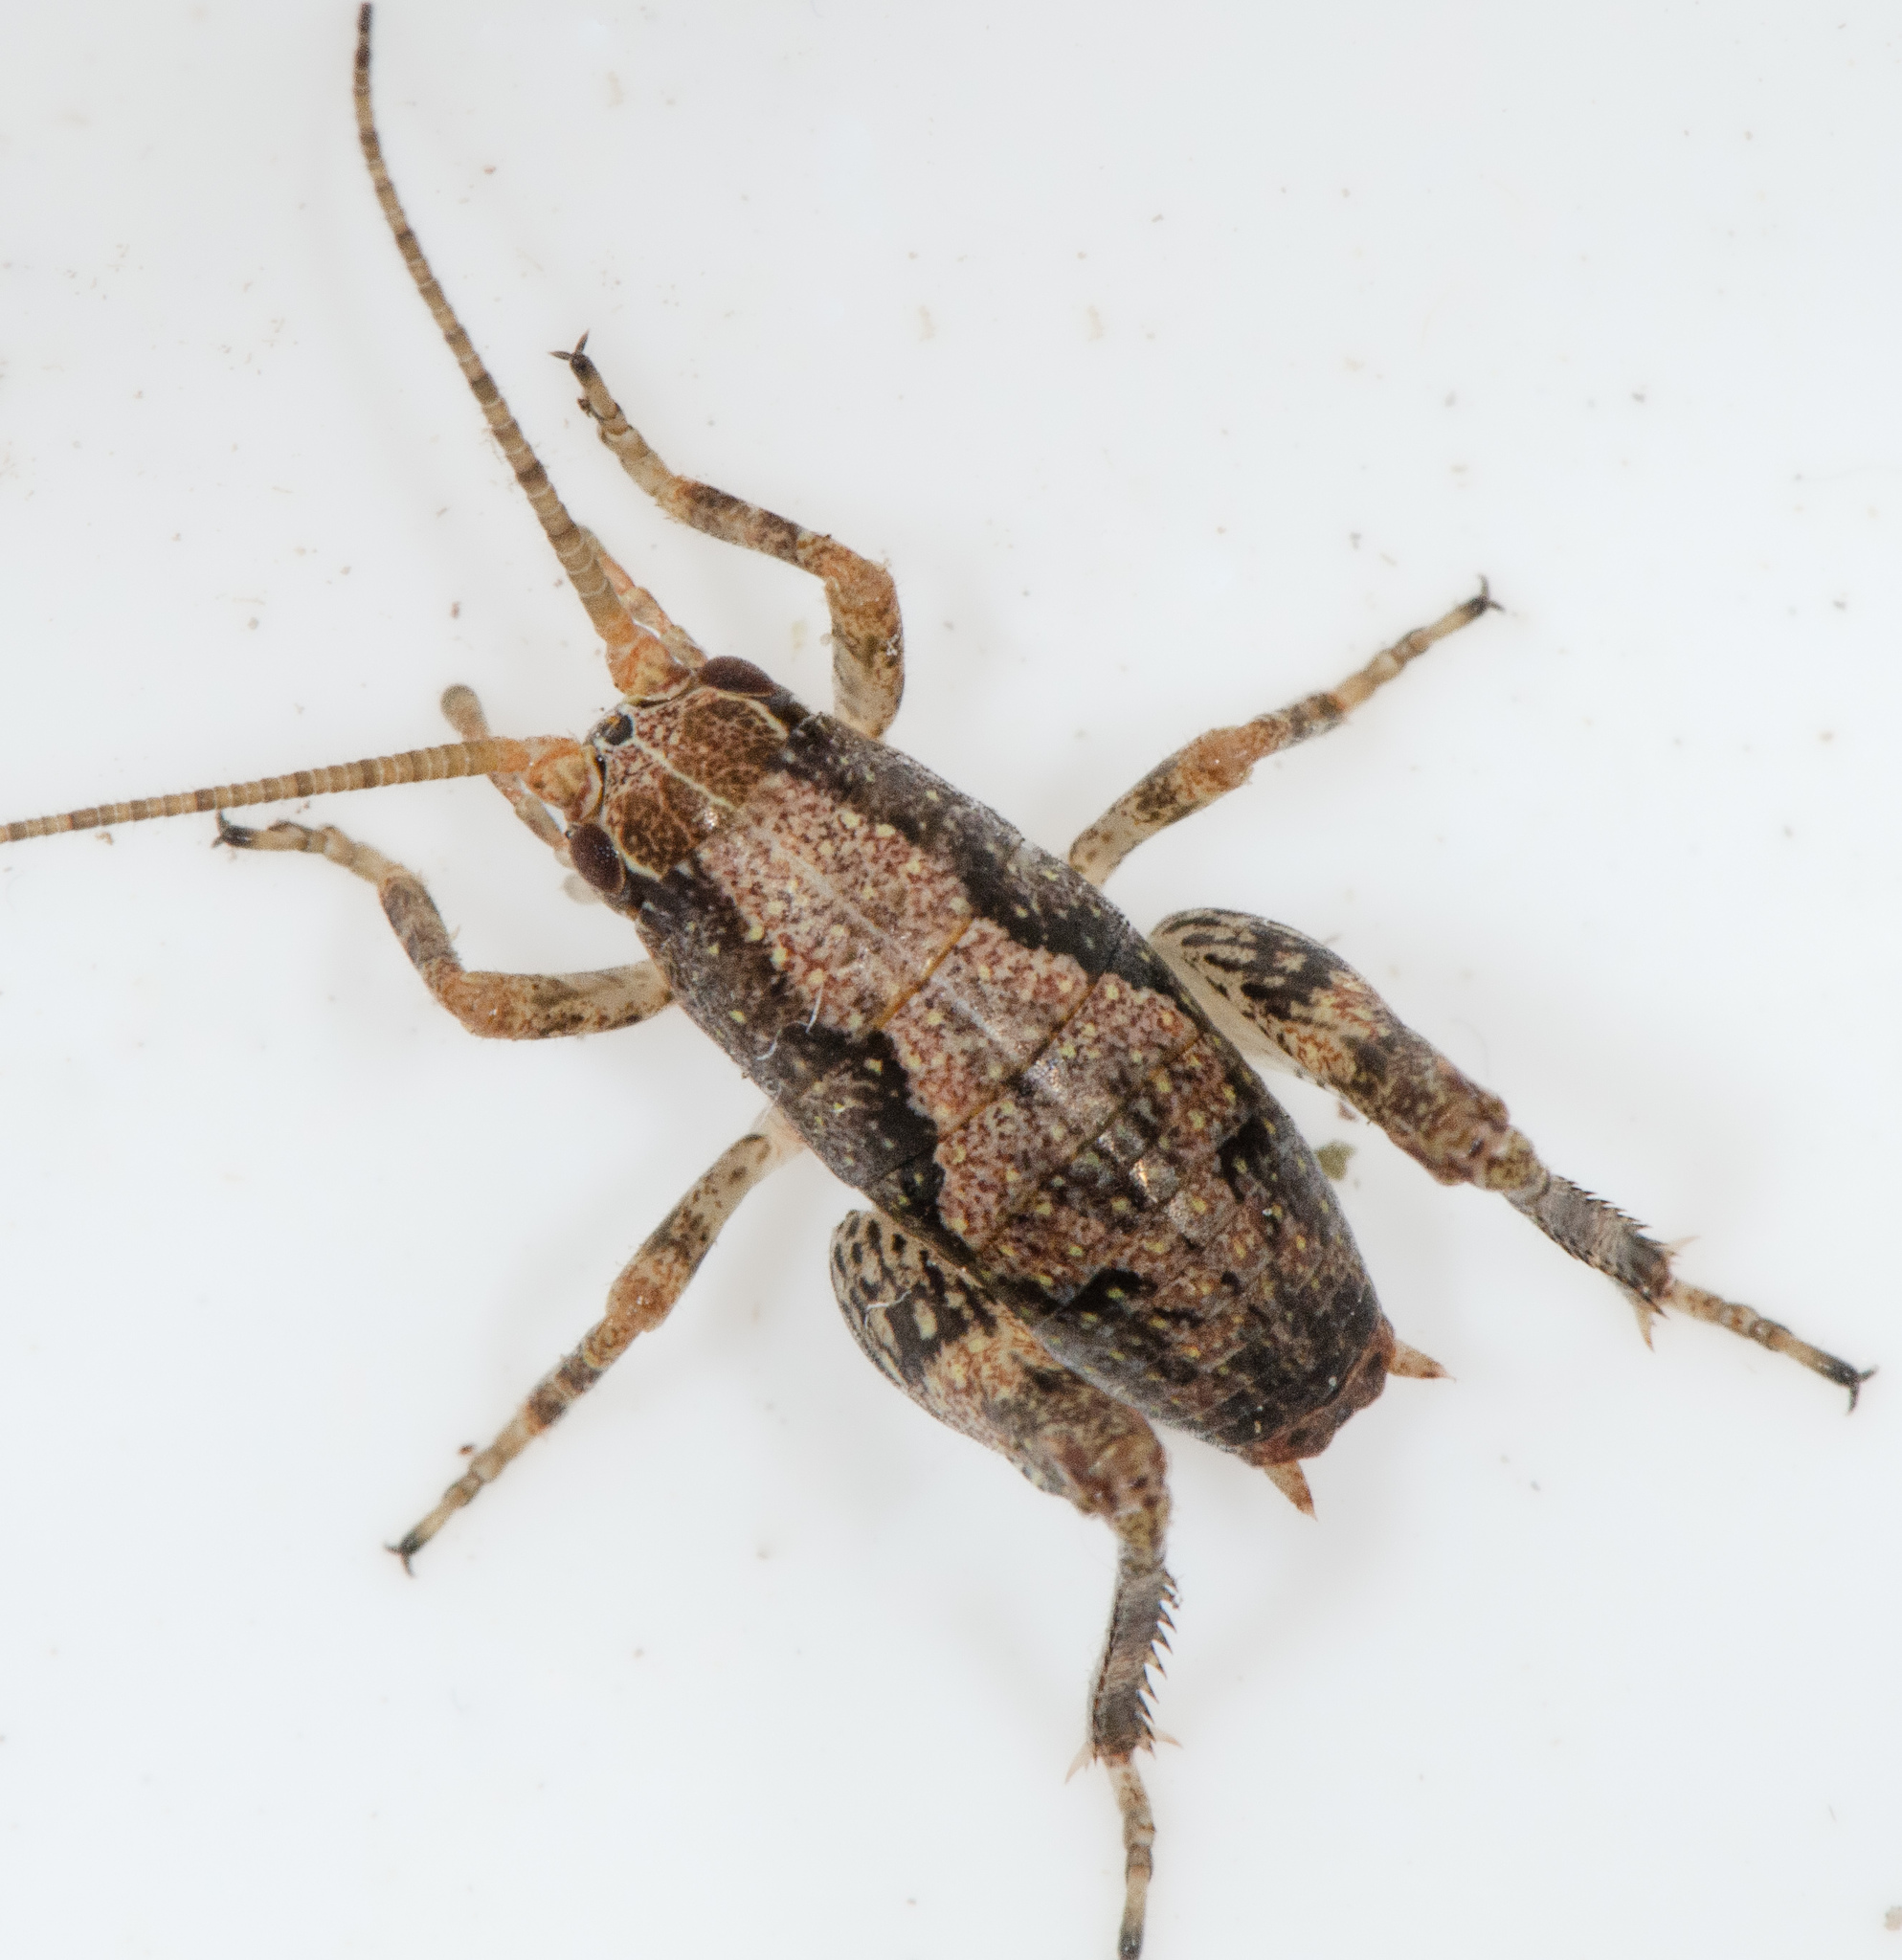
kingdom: Animalia
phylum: Arthropoda
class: Insecta
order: Orthoptera
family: Rhaphidophoridae
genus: Gammarotettix
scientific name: Gammarotettix bilobatus
